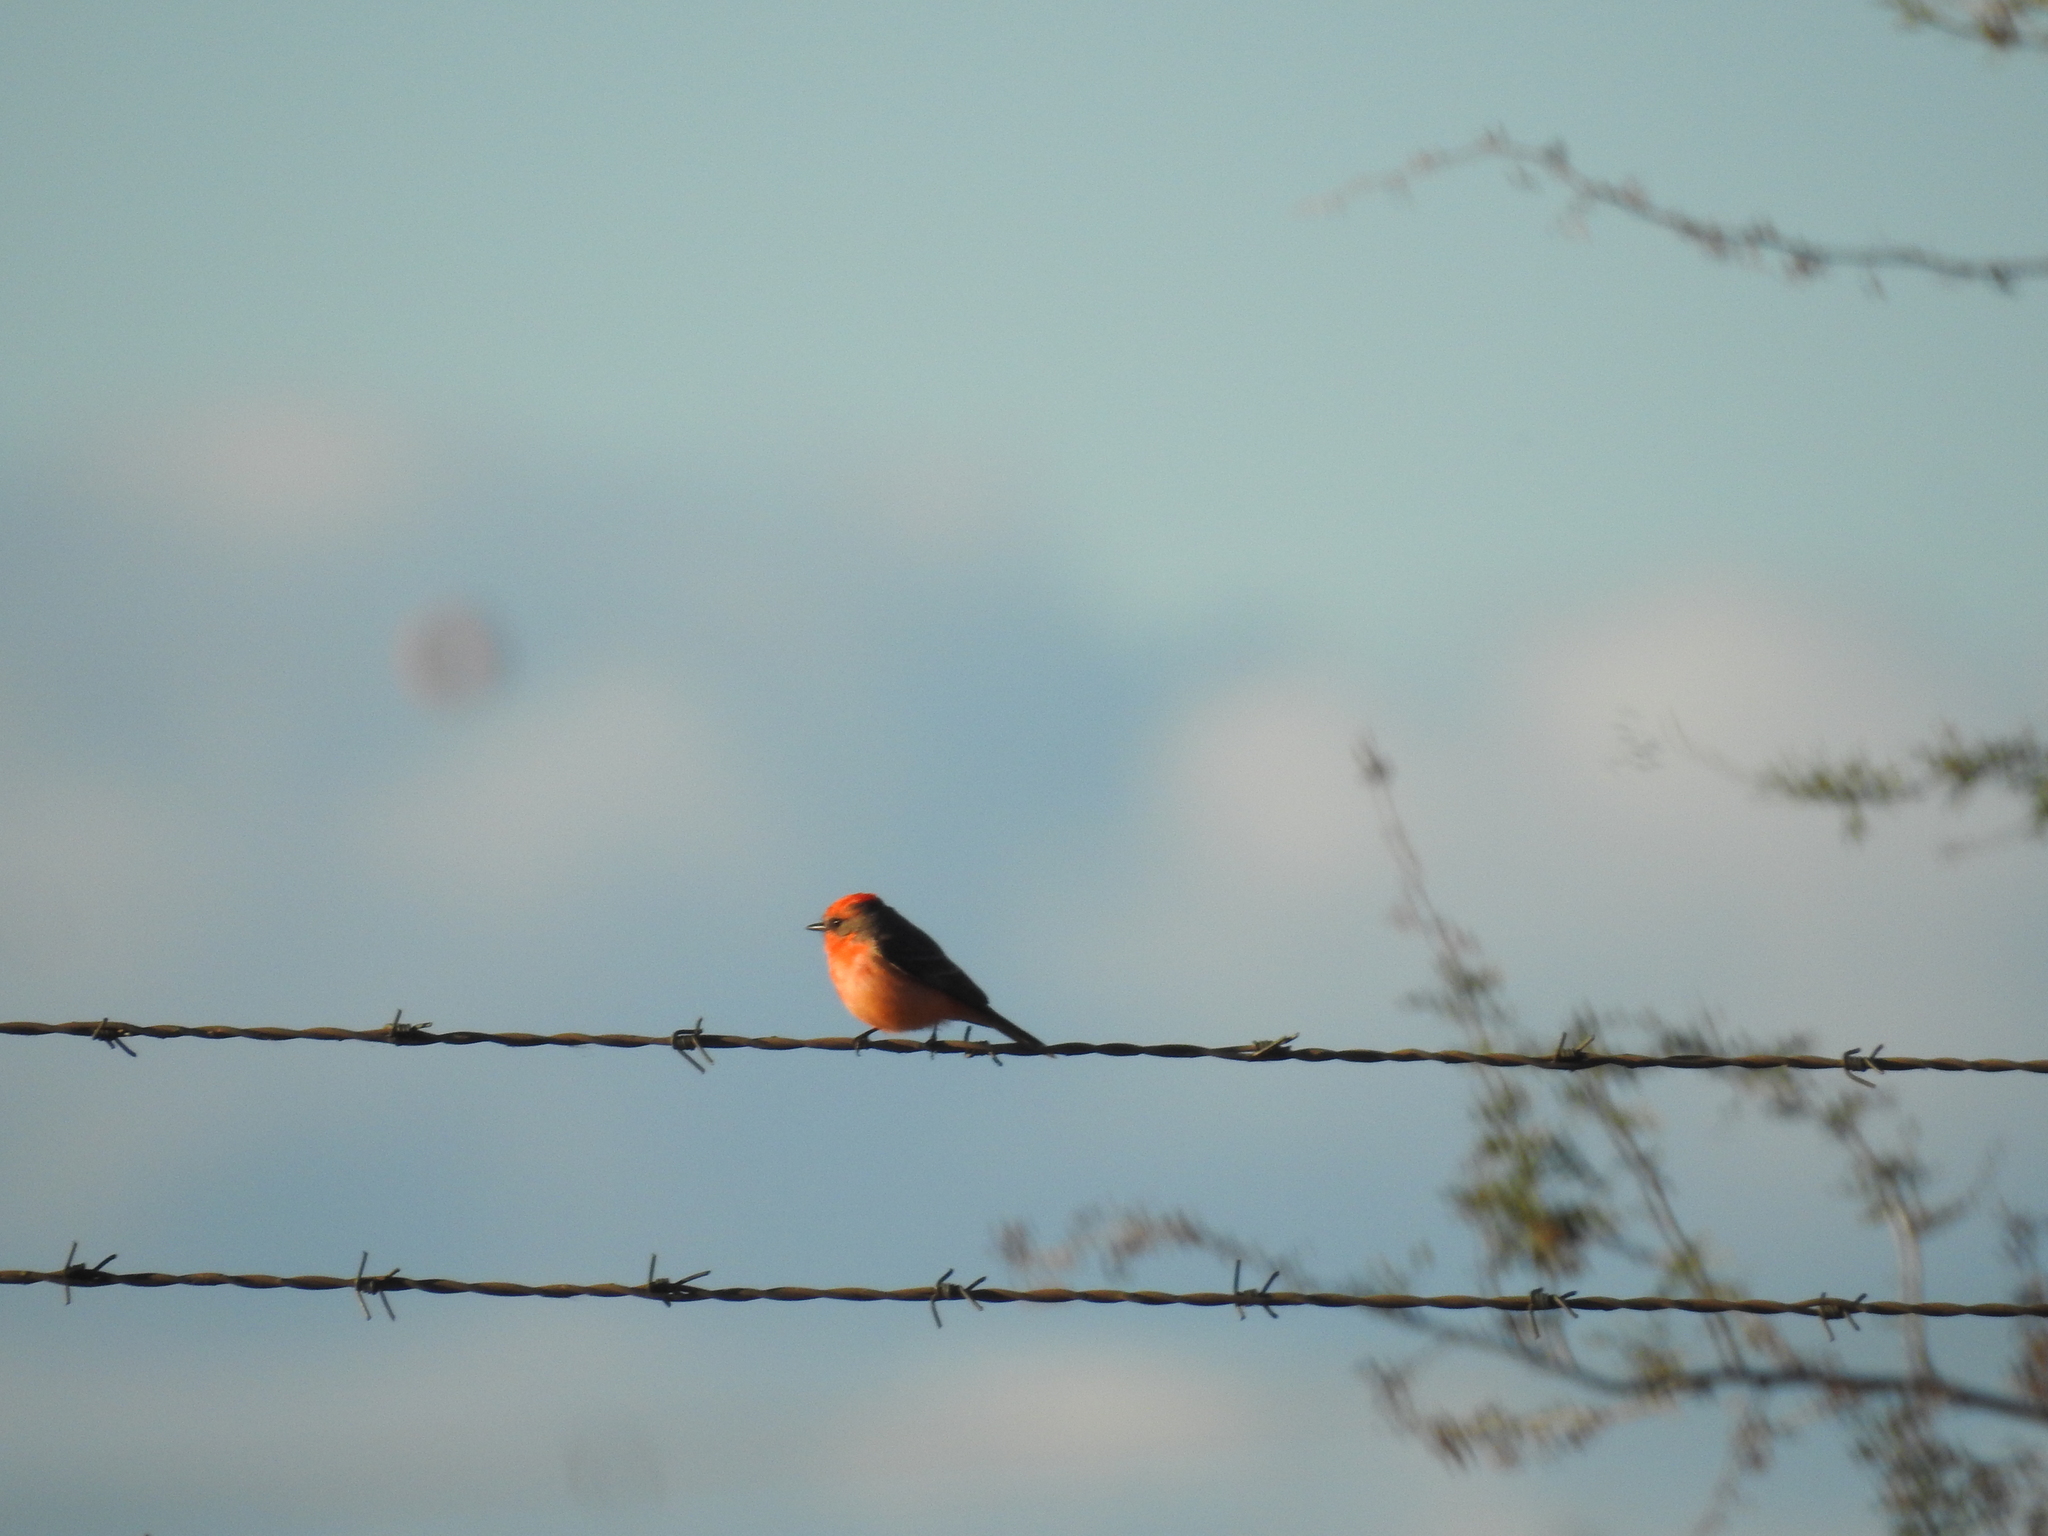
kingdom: Animalia
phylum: Chordata
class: Aves
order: Passeriformes
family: Tyrannidae
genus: Pyrocephalus
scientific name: Pyrocephalus rubinus
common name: Vermilion flycatcher
